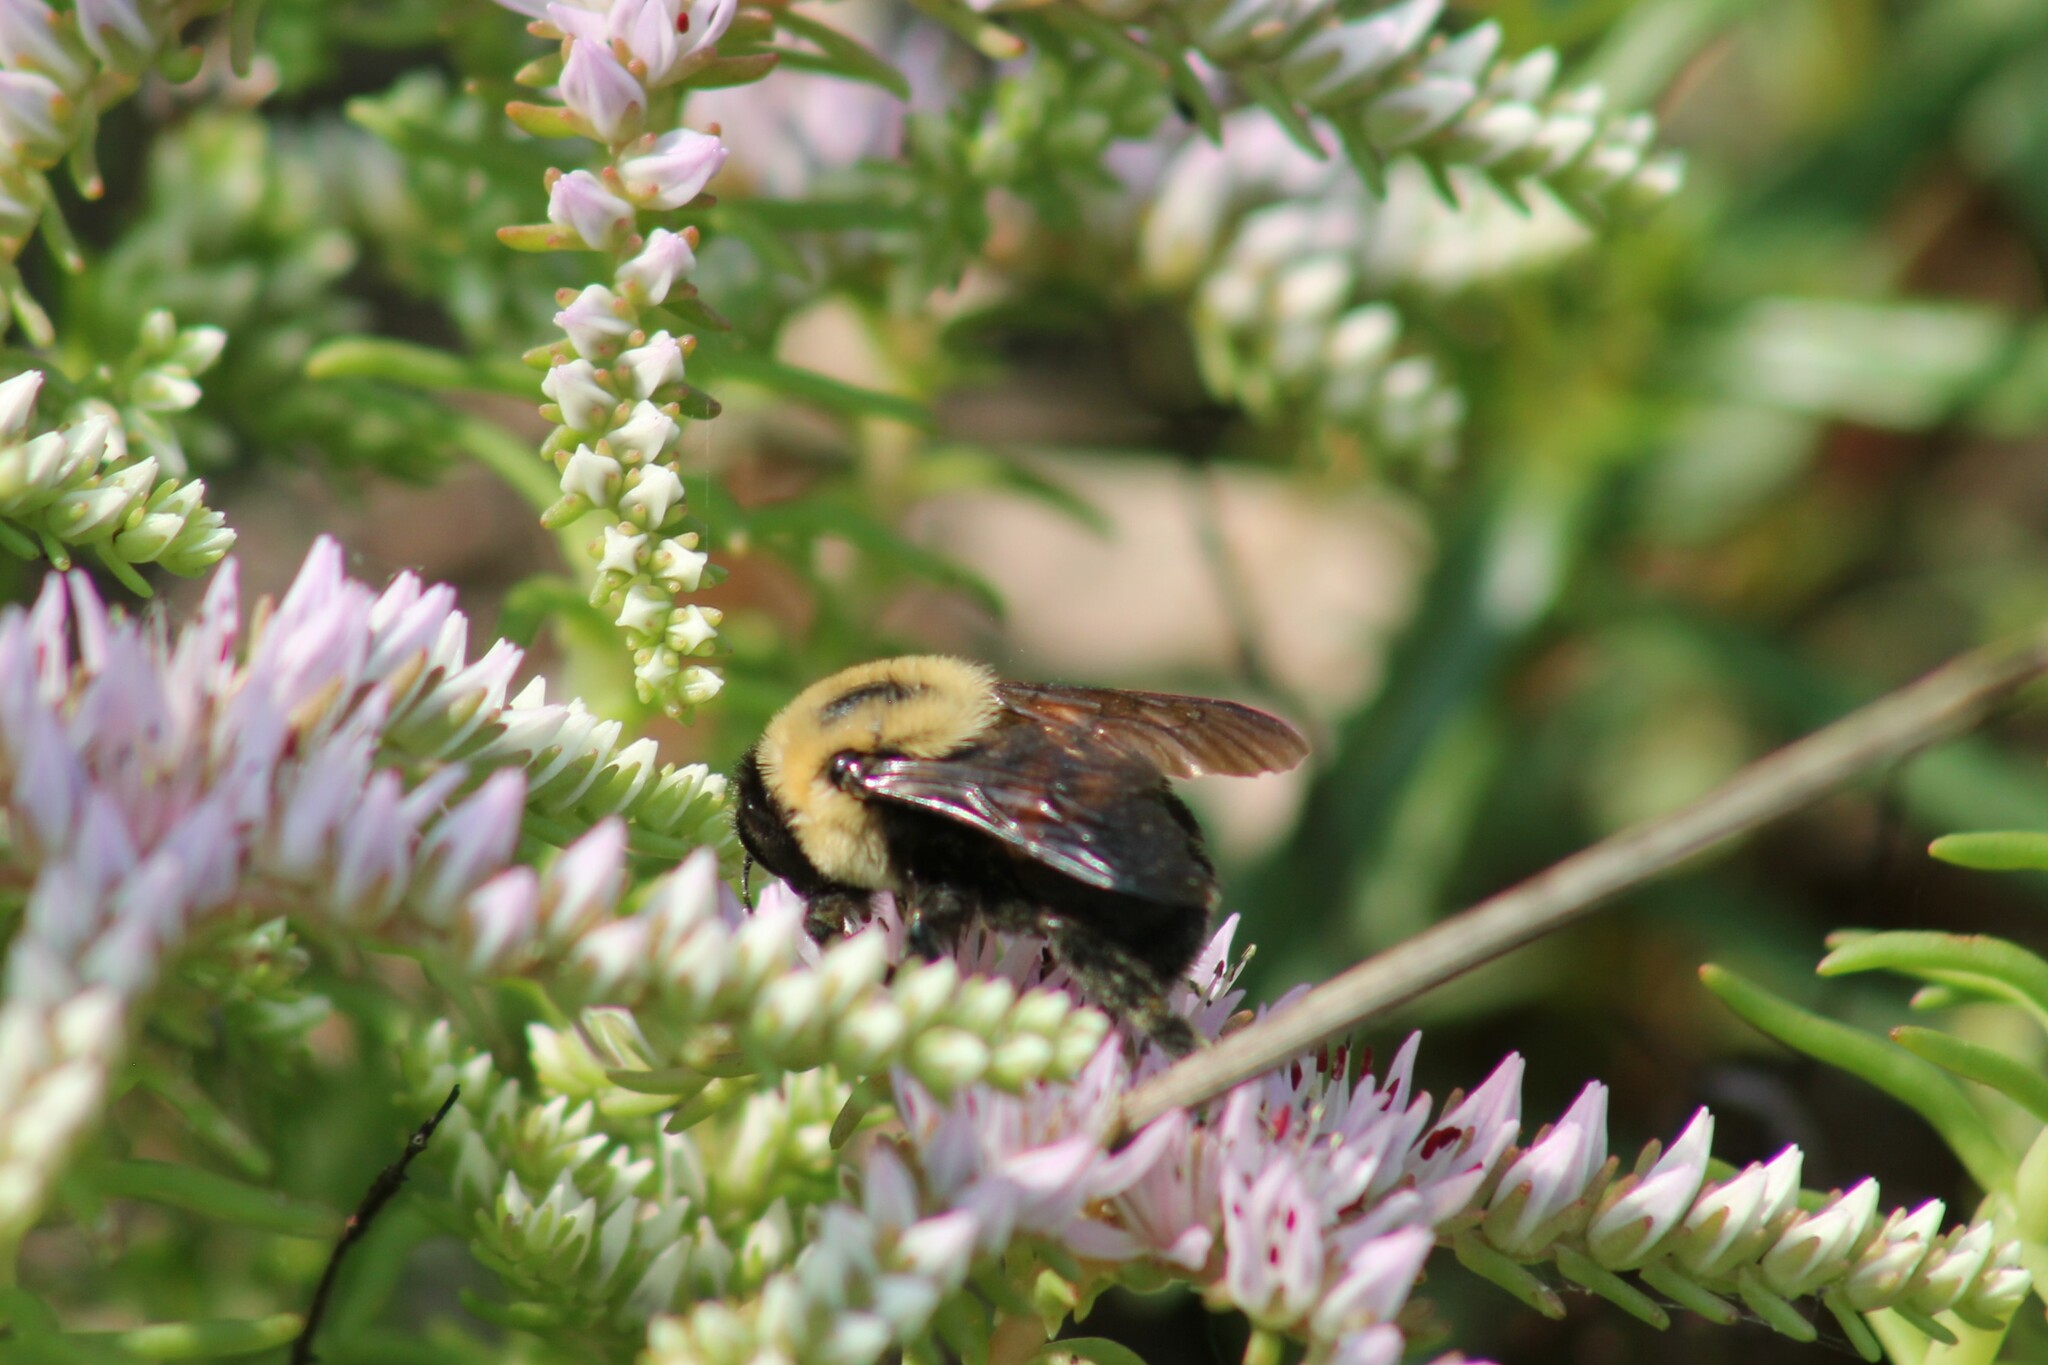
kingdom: Animalia
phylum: Arthropoda
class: Insecta
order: Hymenoptera
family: Apidae
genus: Bombus
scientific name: Bombus griseocollis
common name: Brown-belted bumble bee
